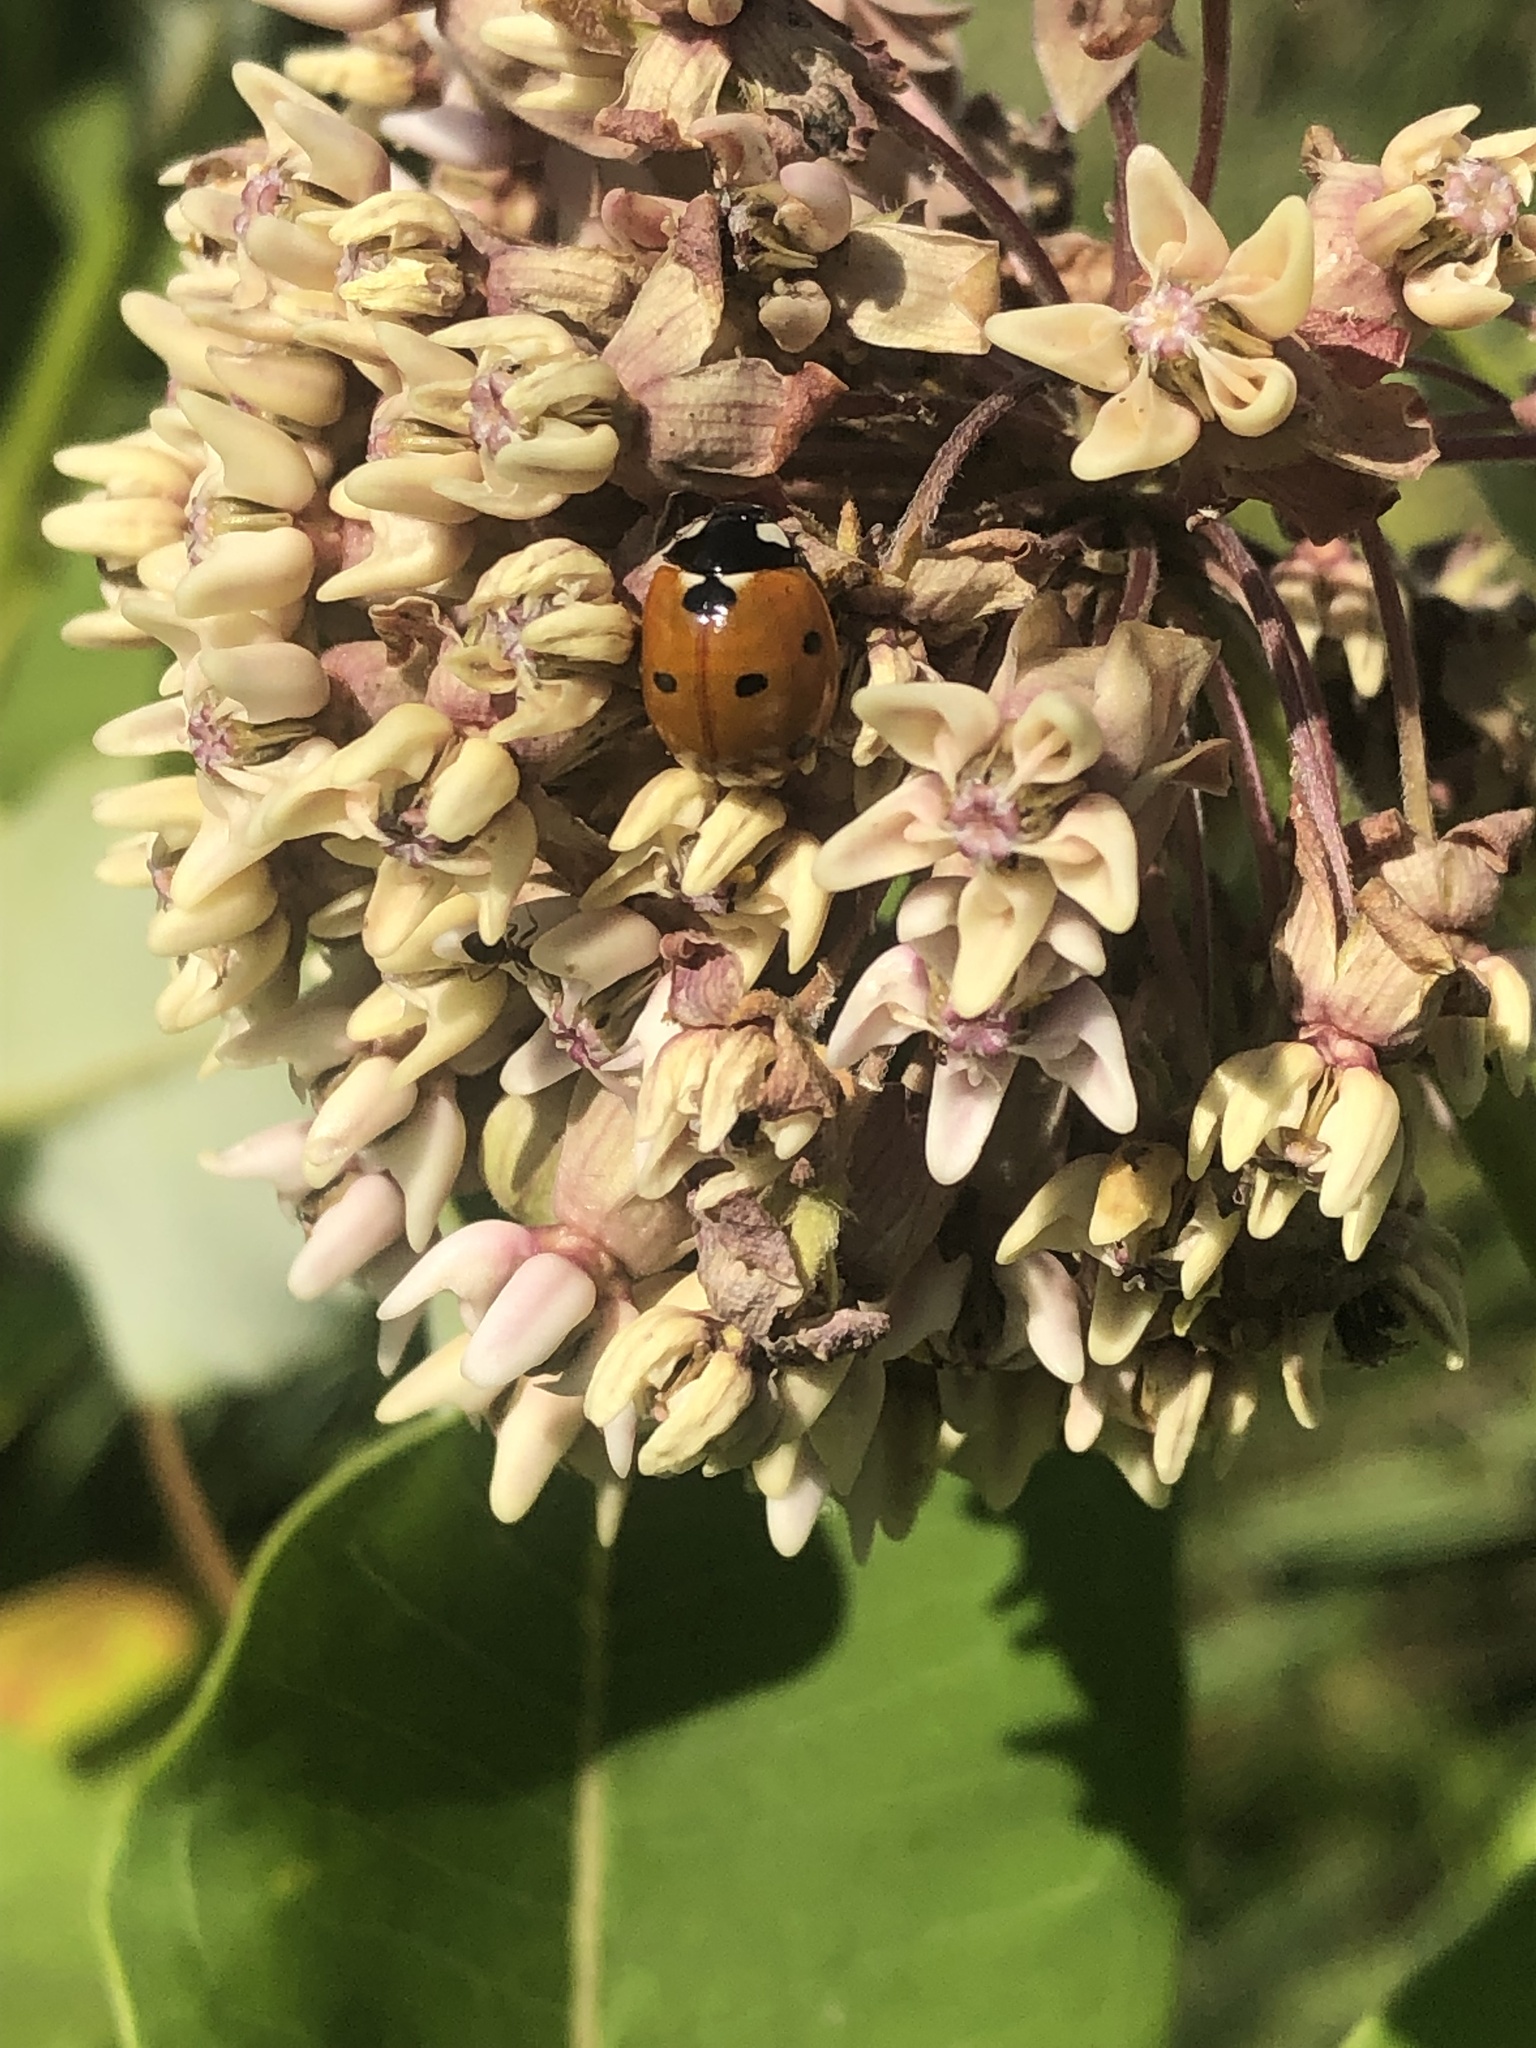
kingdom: Animalia
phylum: Arthropoda
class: Insecta
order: Coleoptera
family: Coccinellidae
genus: Coccinella
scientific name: Coccinella septempunctata
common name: Sevenspotted lady beetle
